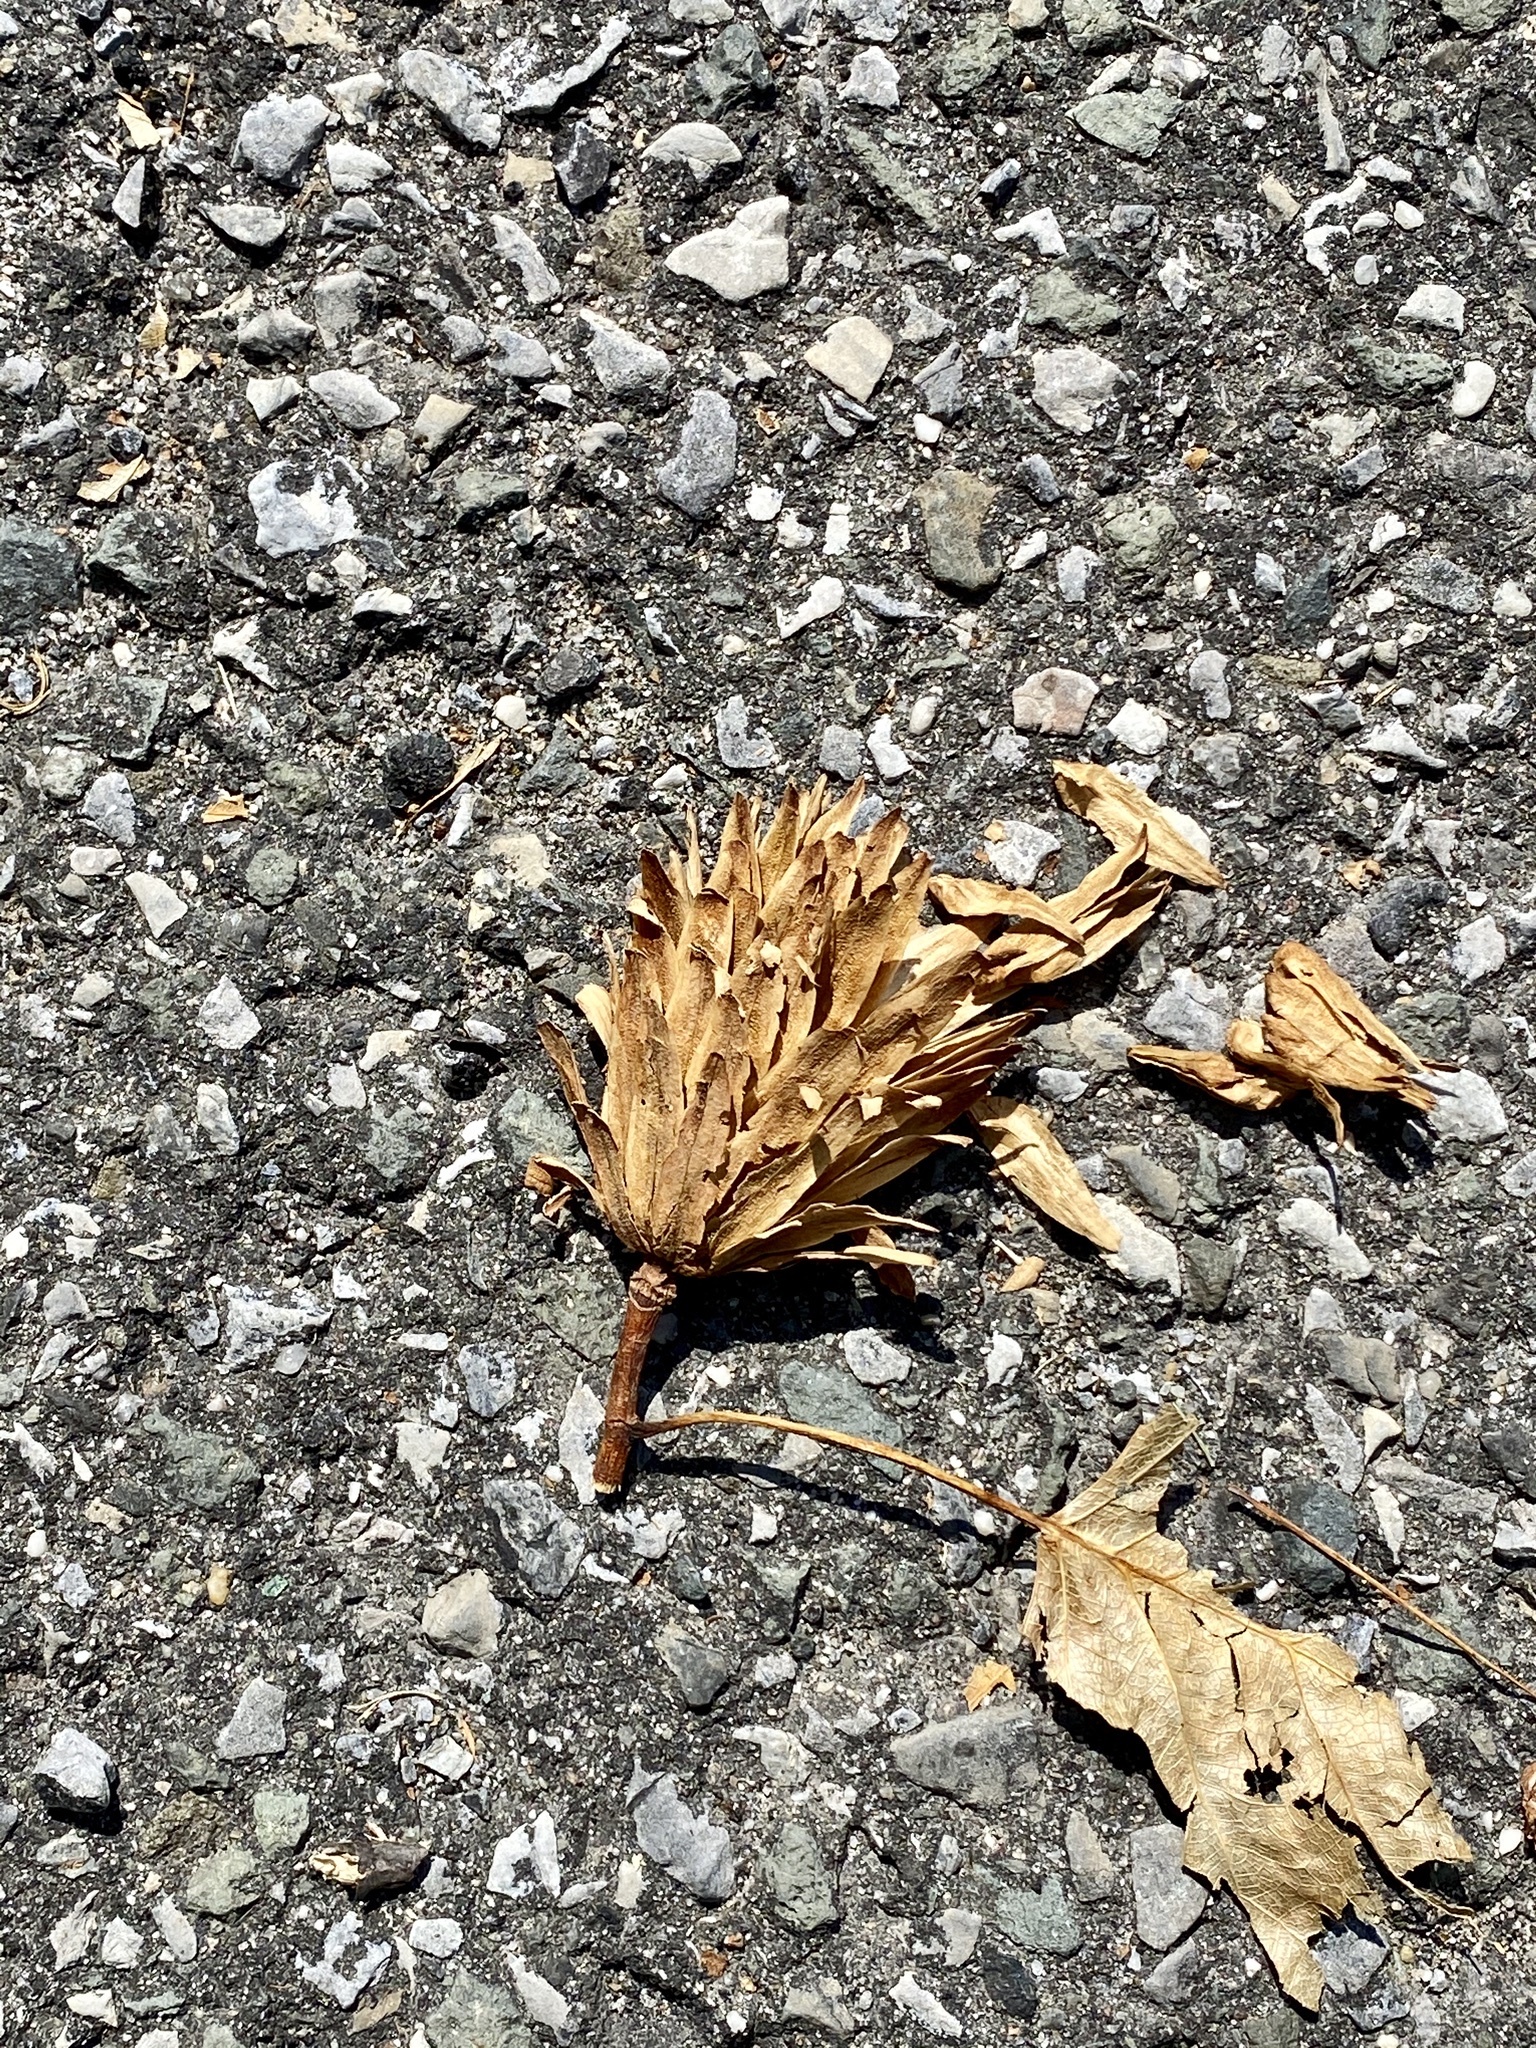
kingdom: Plantae
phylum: Tracheophyta
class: Magnoliopsida
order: Magnoliales
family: Magnoliaceae
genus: Liriodendron
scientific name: Liriodendron tulipifera
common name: Tulip tree
